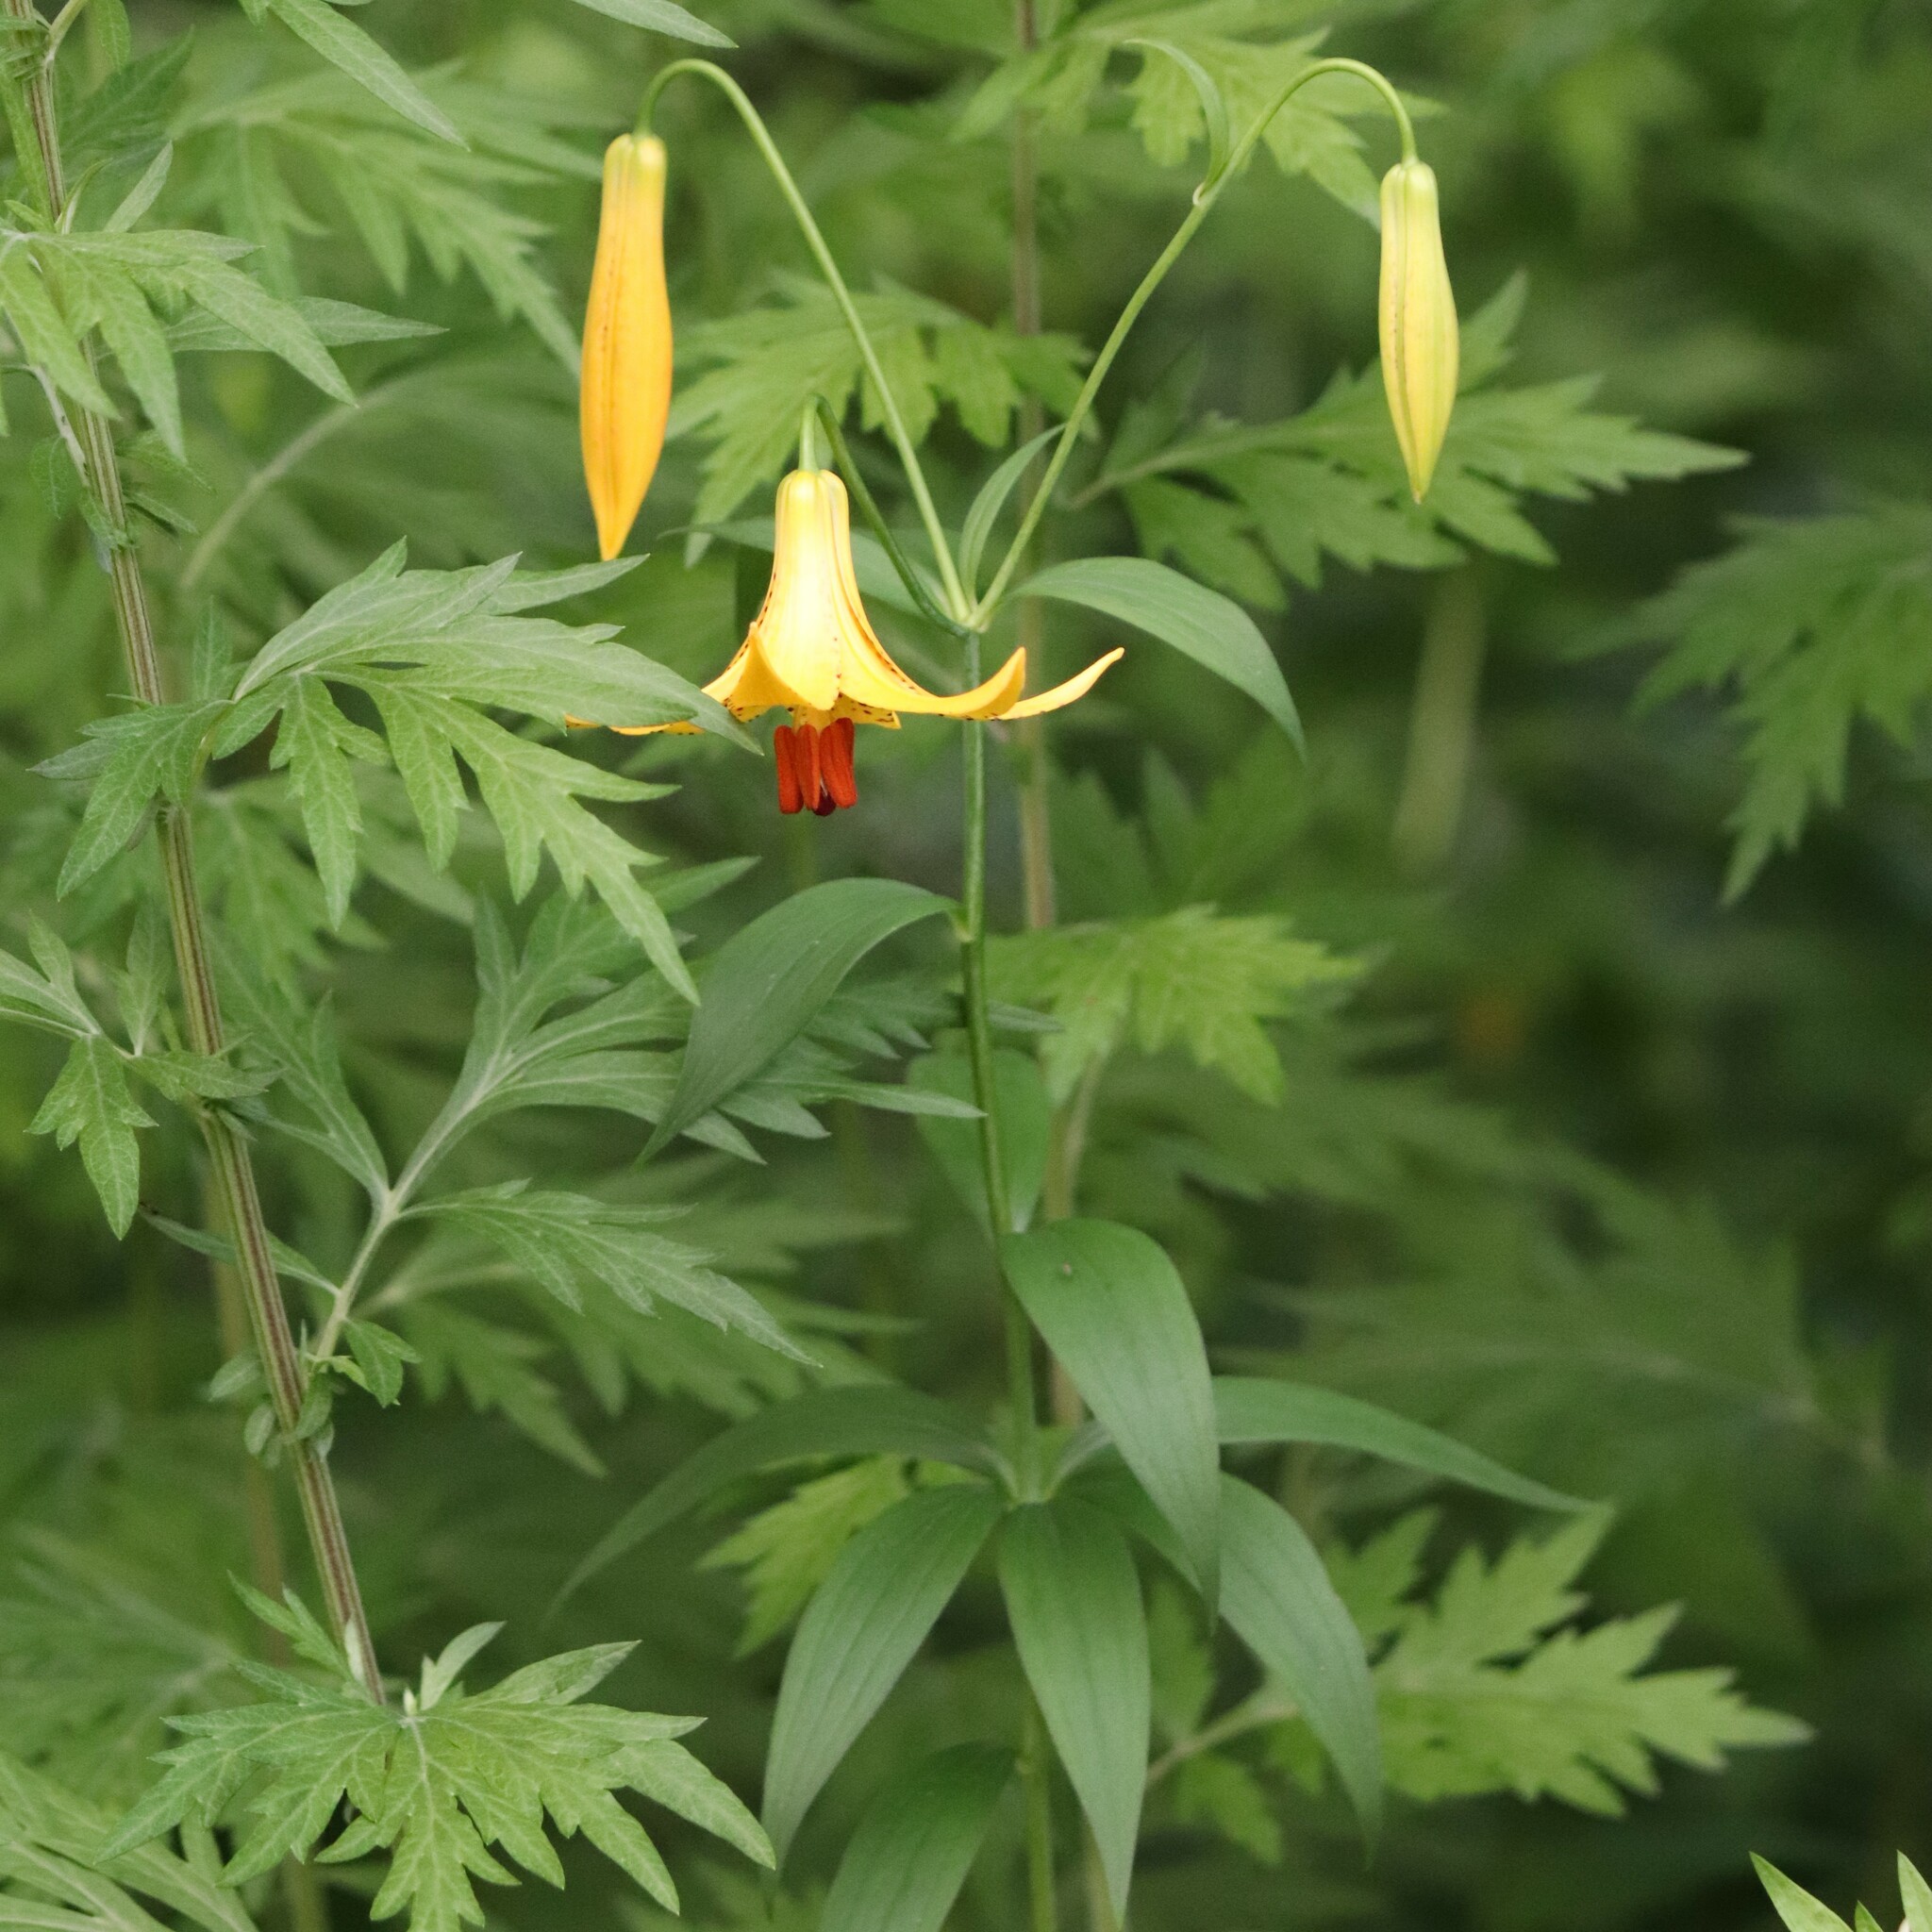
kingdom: Plantae
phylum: Tracheophyta
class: Liliopsida
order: Liliales
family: Liliaceae
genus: Lilium
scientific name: Lilium canadense
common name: Canada lily
